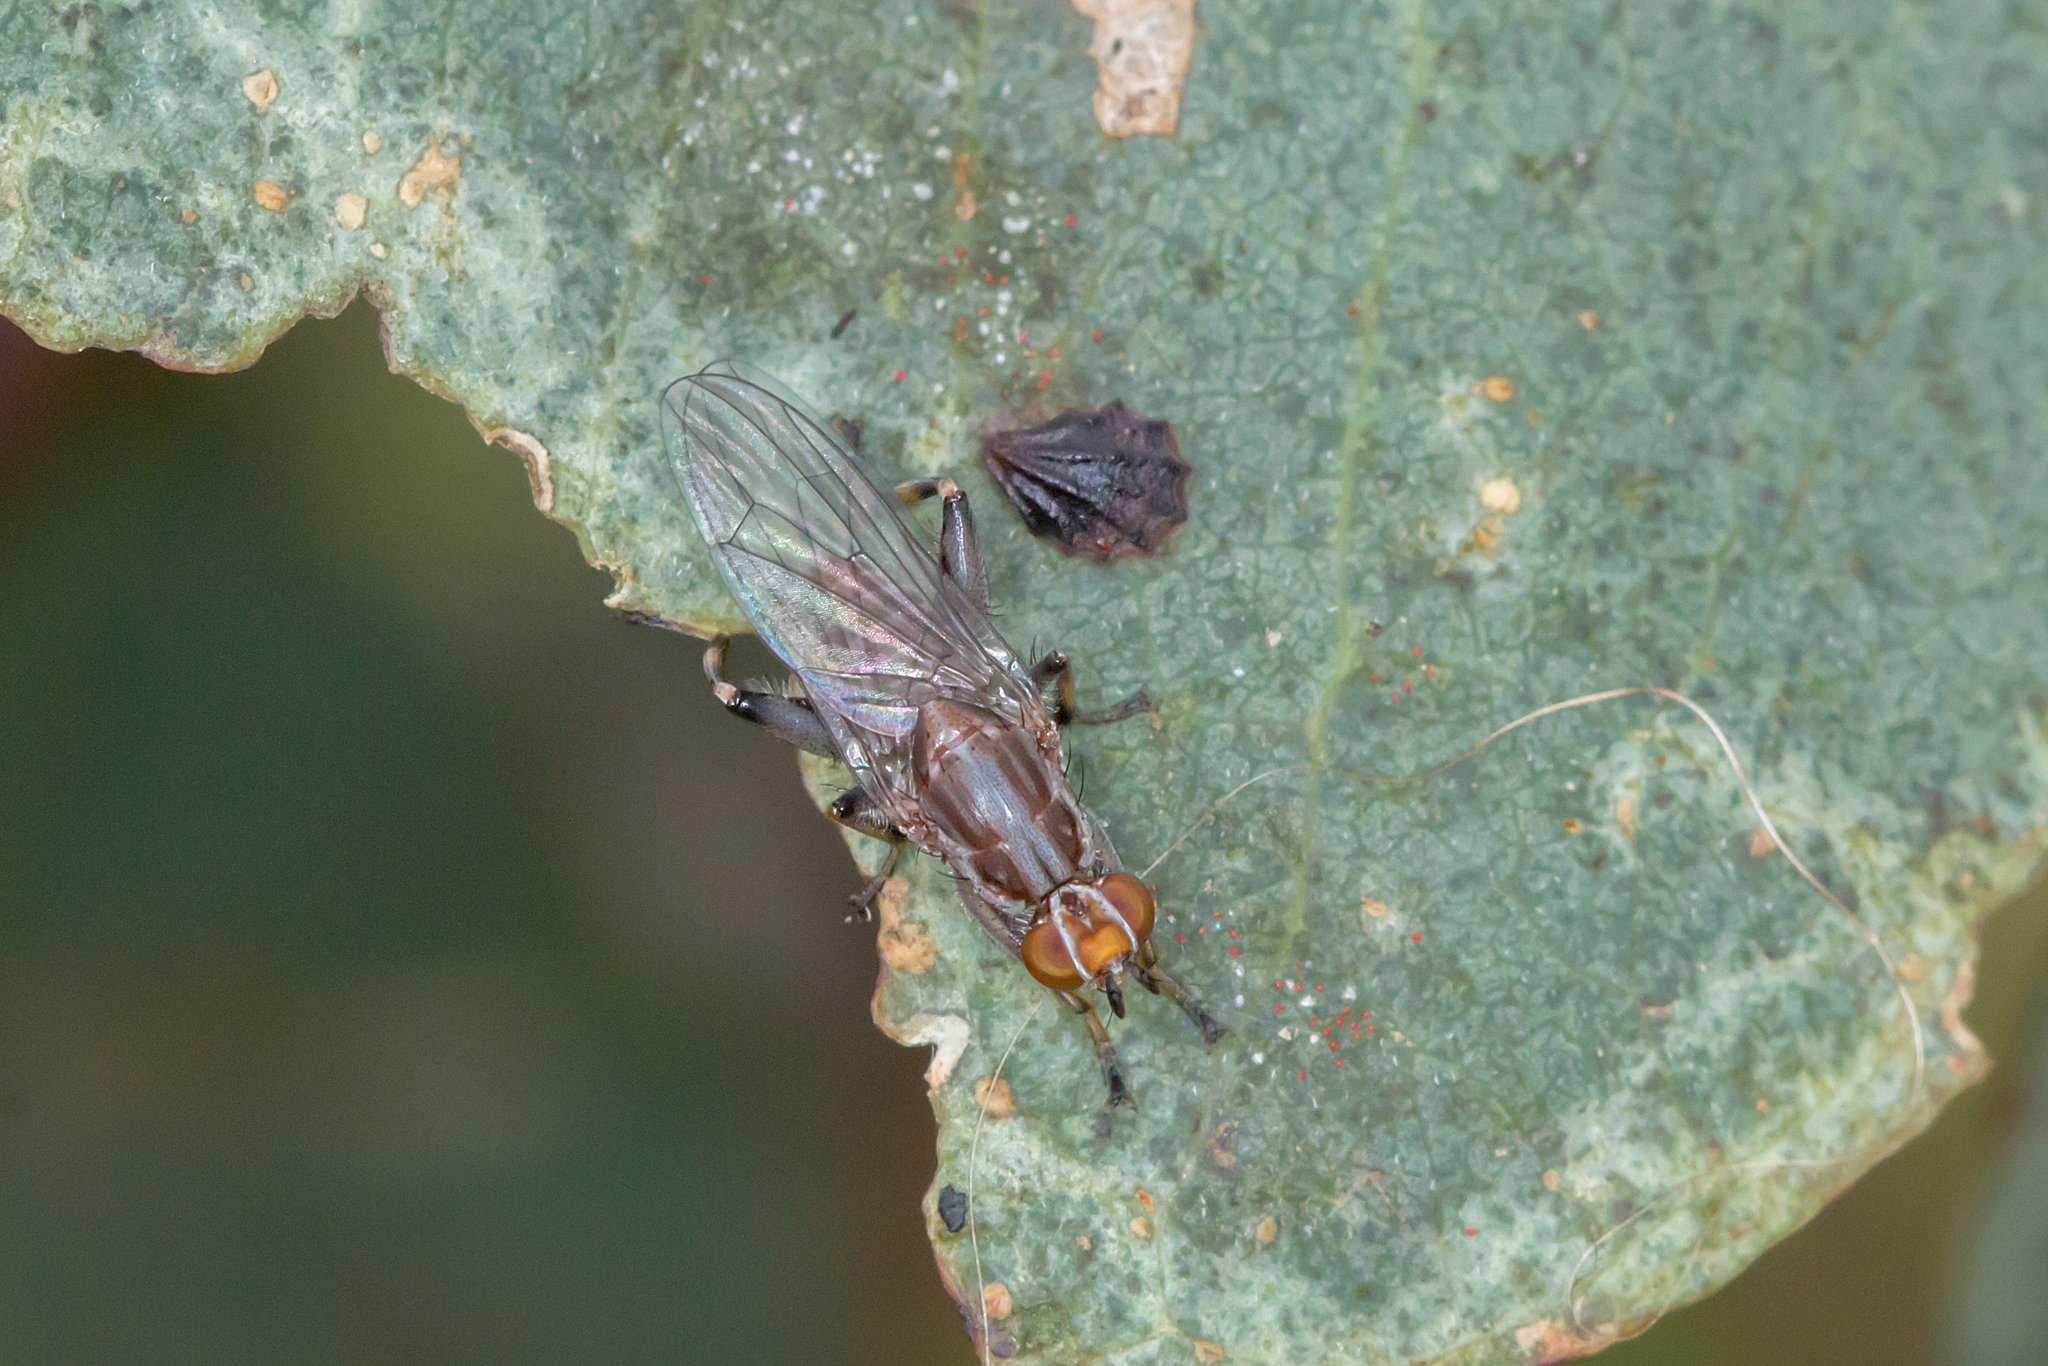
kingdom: Animalia
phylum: Arthropoda
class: Insecta
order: Diptera
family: Heleomyzidae
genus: Tapeigaster
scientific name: Tapeigaster nigricornis
